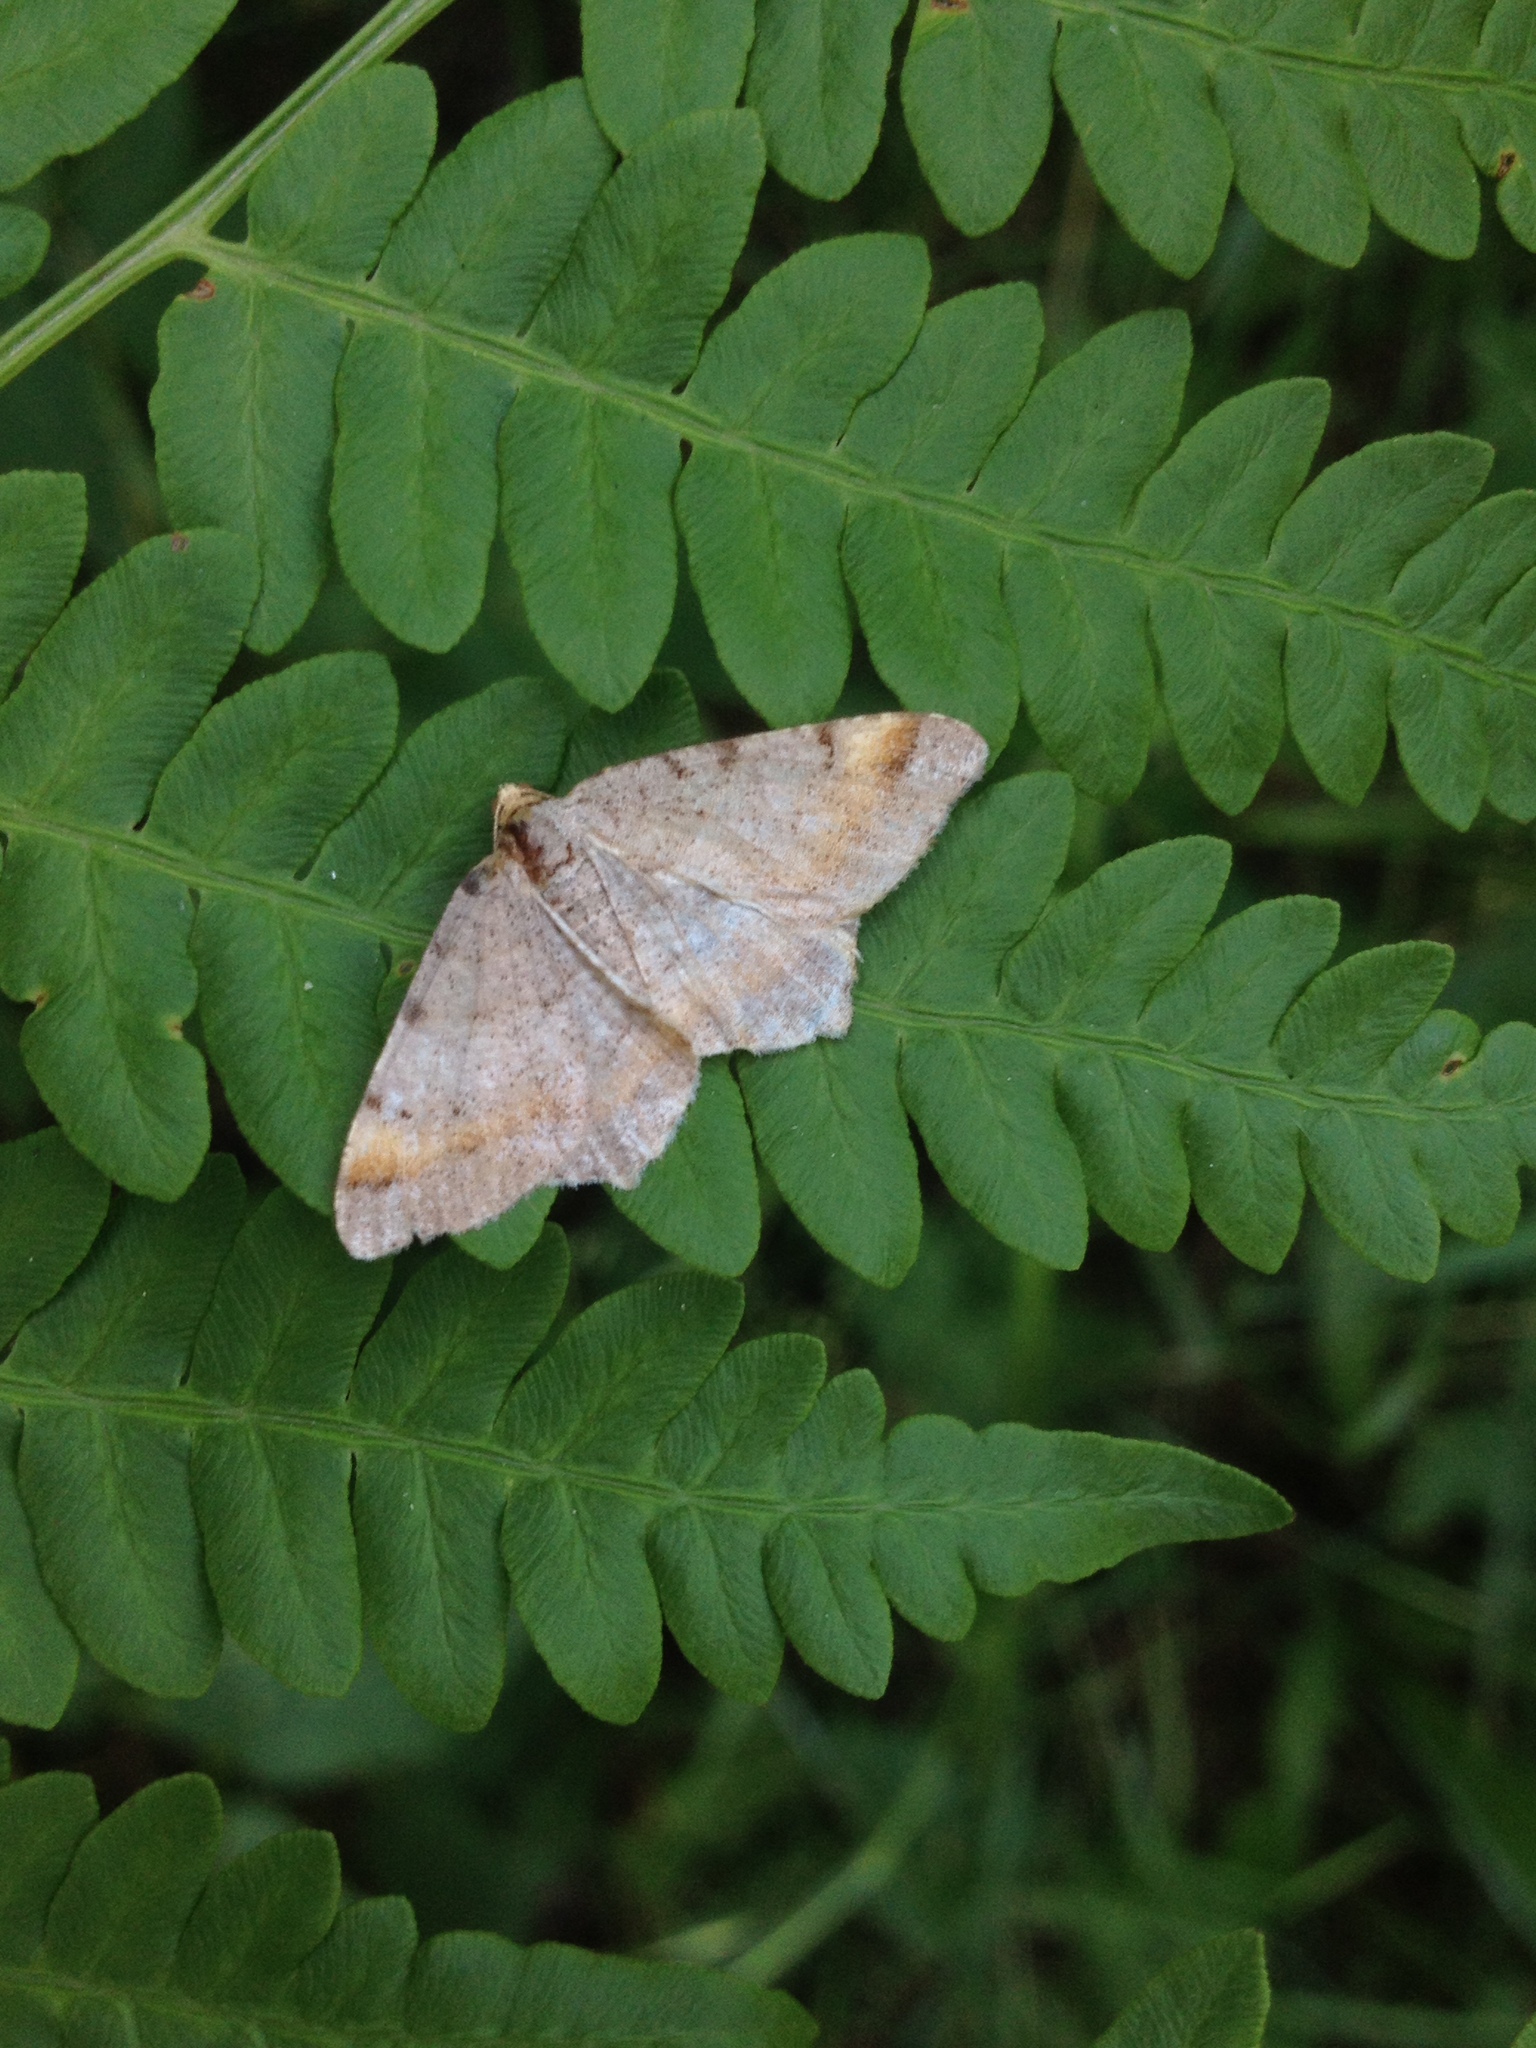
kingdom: Animalia
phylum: Arthropoda
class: Insecta
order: Lepidoptera
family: Geometridae
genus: Macaria
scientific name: Macaria liturata
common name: Tawny-barred angle
